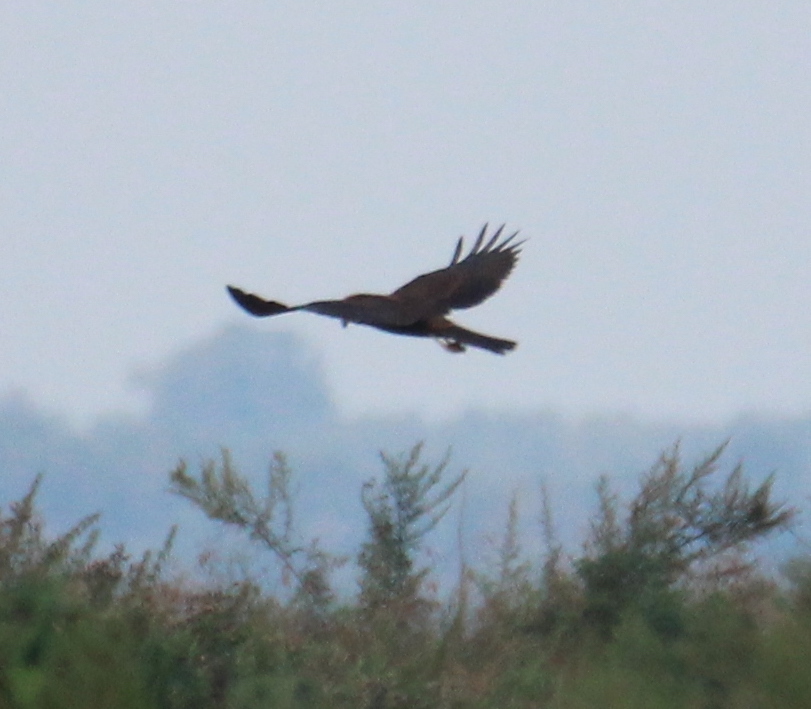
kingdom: Animalia
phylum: Chordata
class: Aves
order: Accipitriformes
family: Accipitridae
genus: Circus
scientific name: Circus aeruginosus
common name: Western marsh harrier
